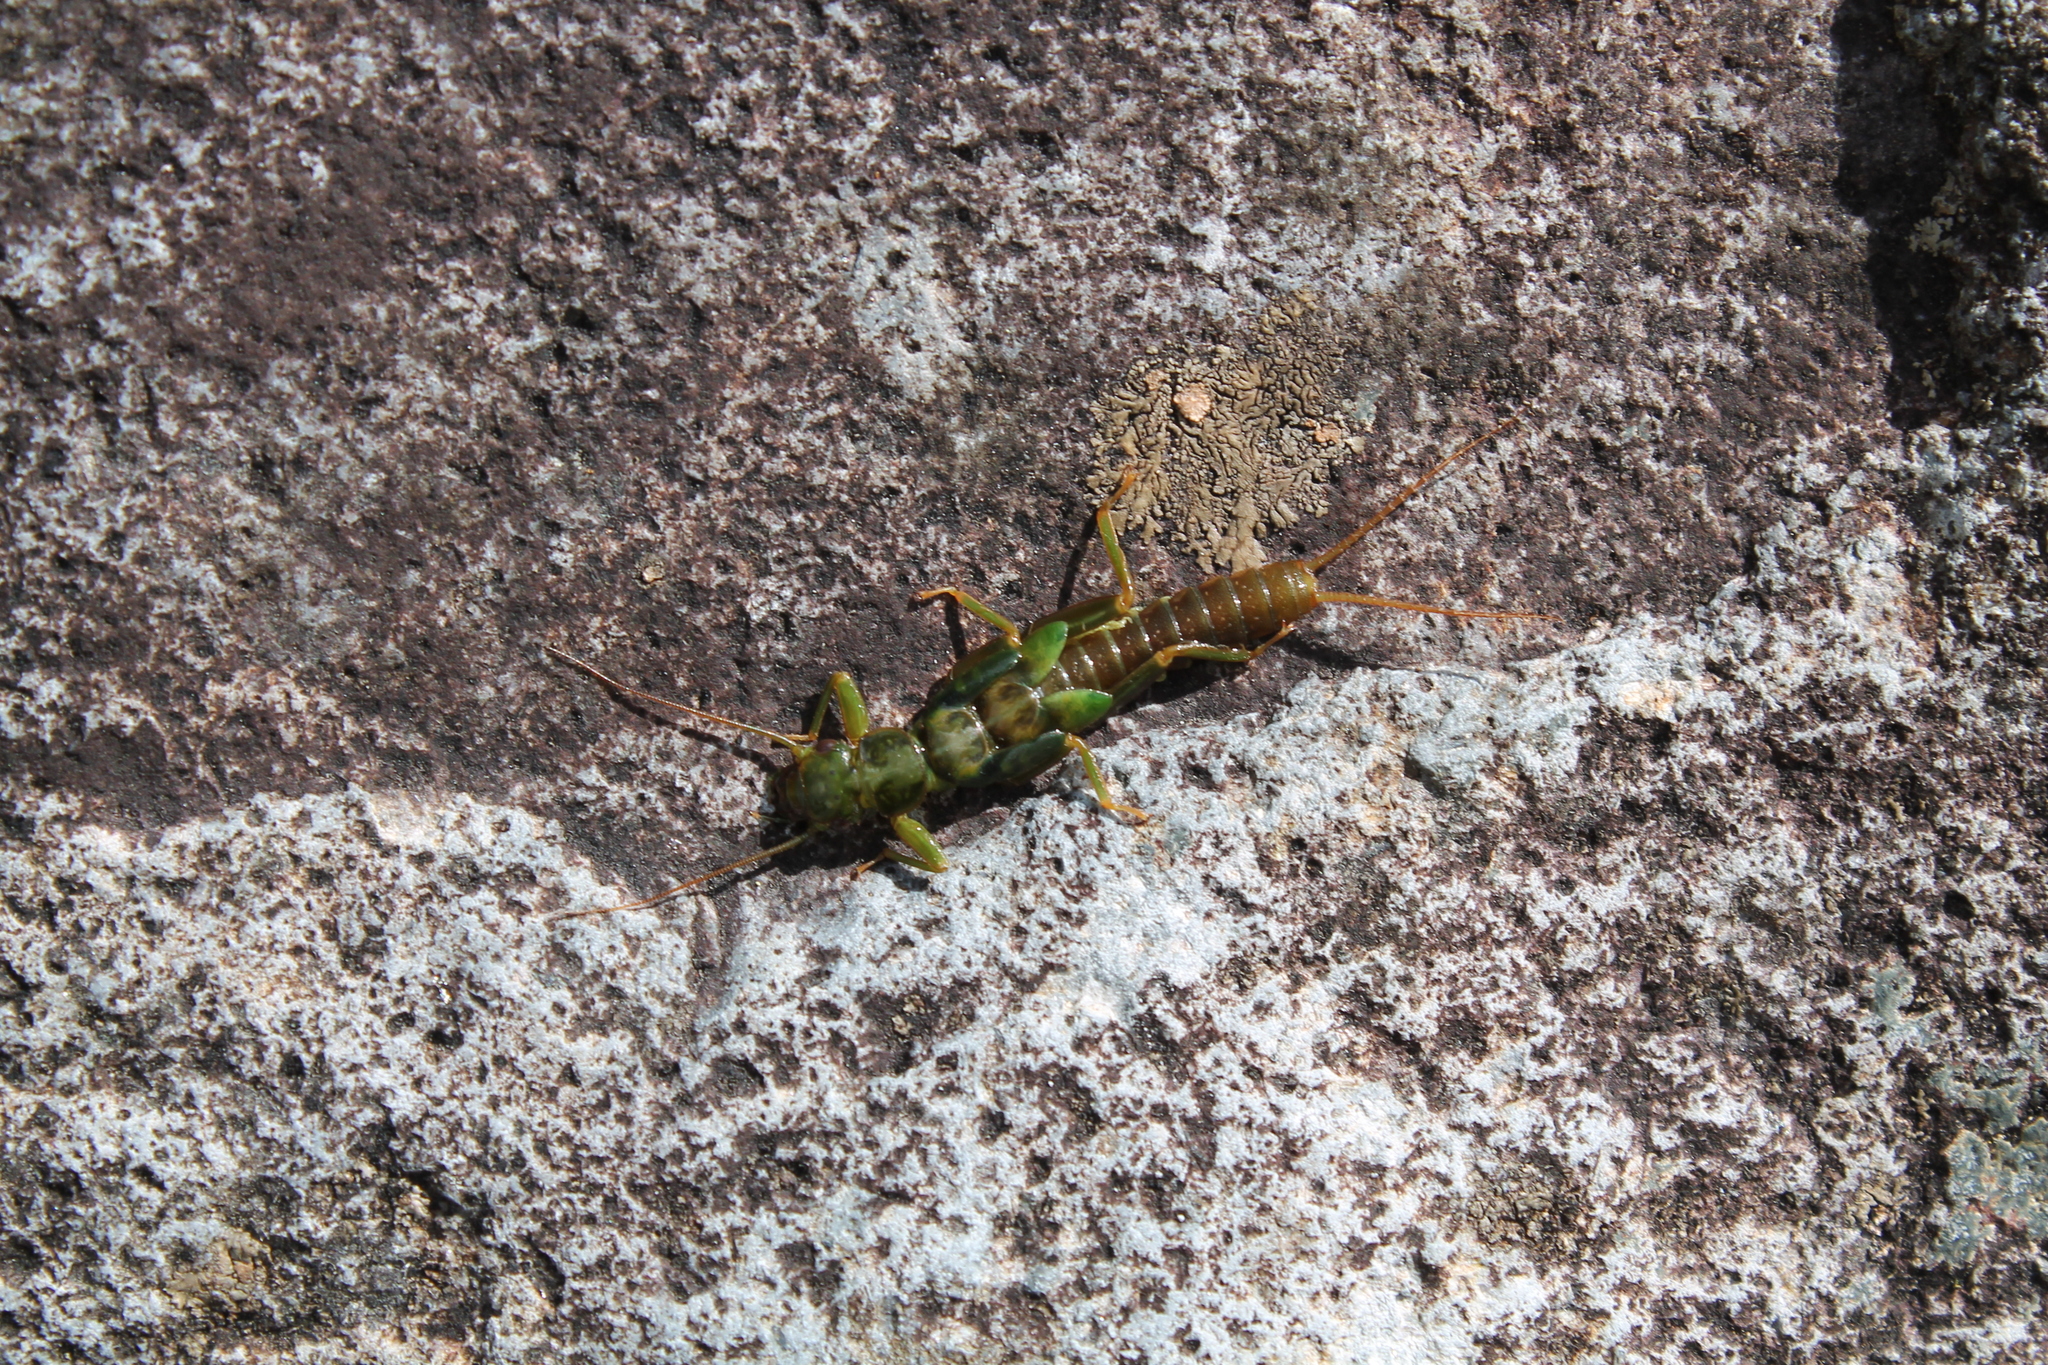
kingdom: Animalia
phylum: Arthropoda
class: Insecta
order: Plecoptera
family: Eustheniidae
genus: Stenoperla
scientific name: Stenoperla prasina
